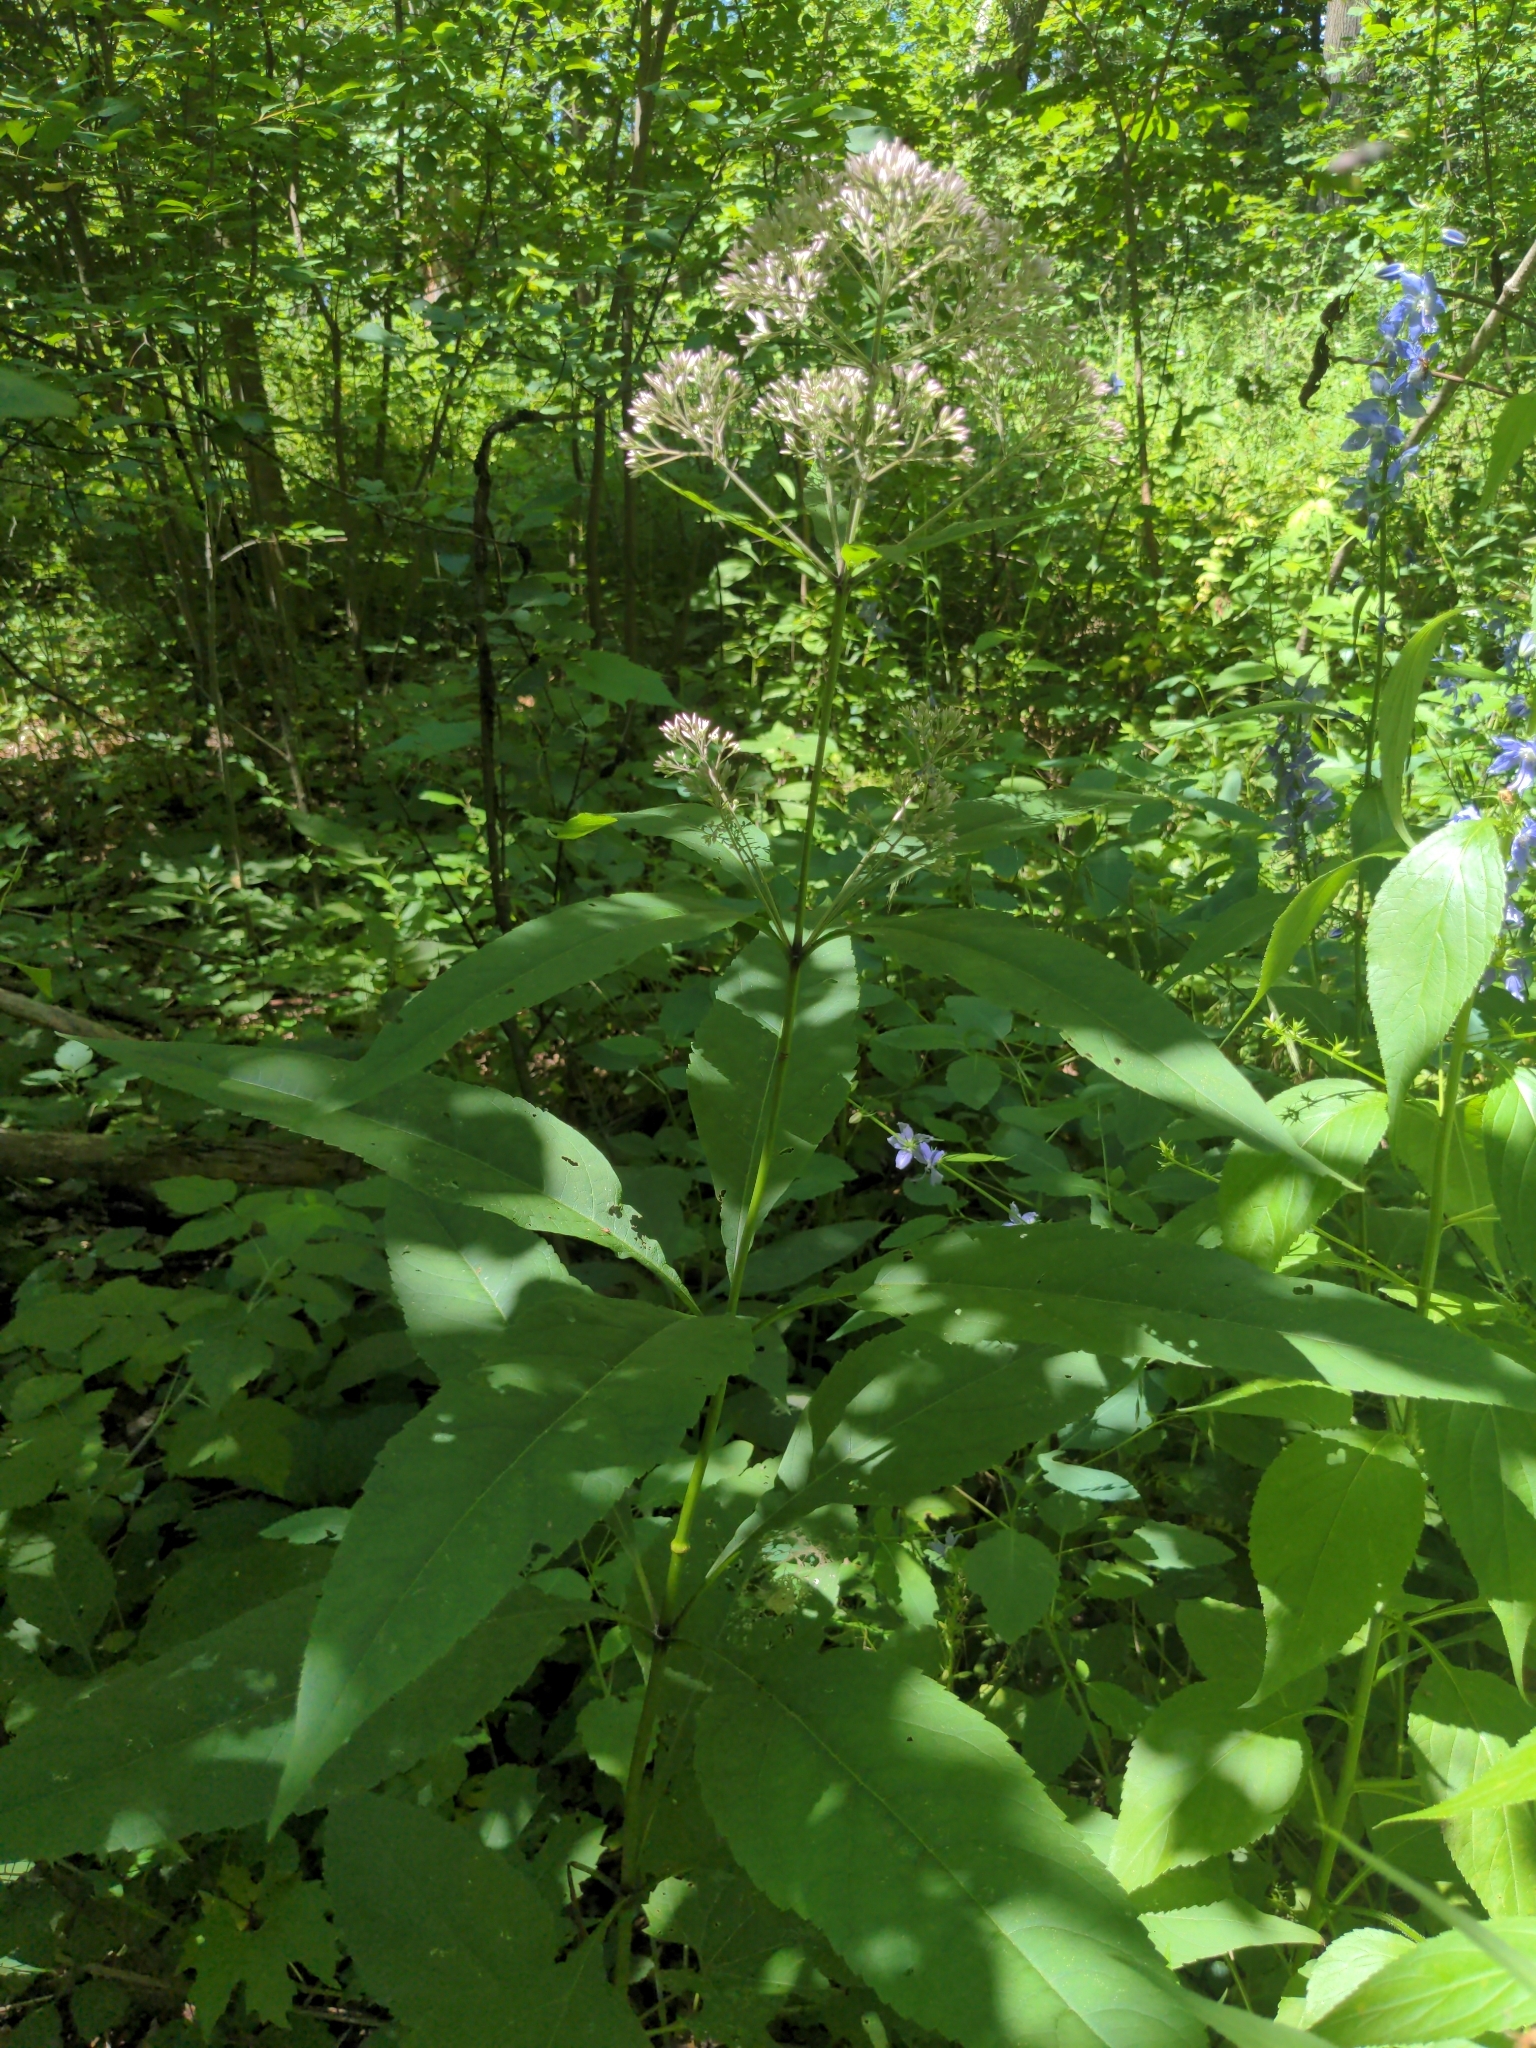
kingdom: Plantae
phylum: Tracheophyta
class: Magnoliopsida
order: Asterales
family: Asteraceae
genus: Eutrochium
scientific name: Eutrochium purpureum
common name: Gravelroot
